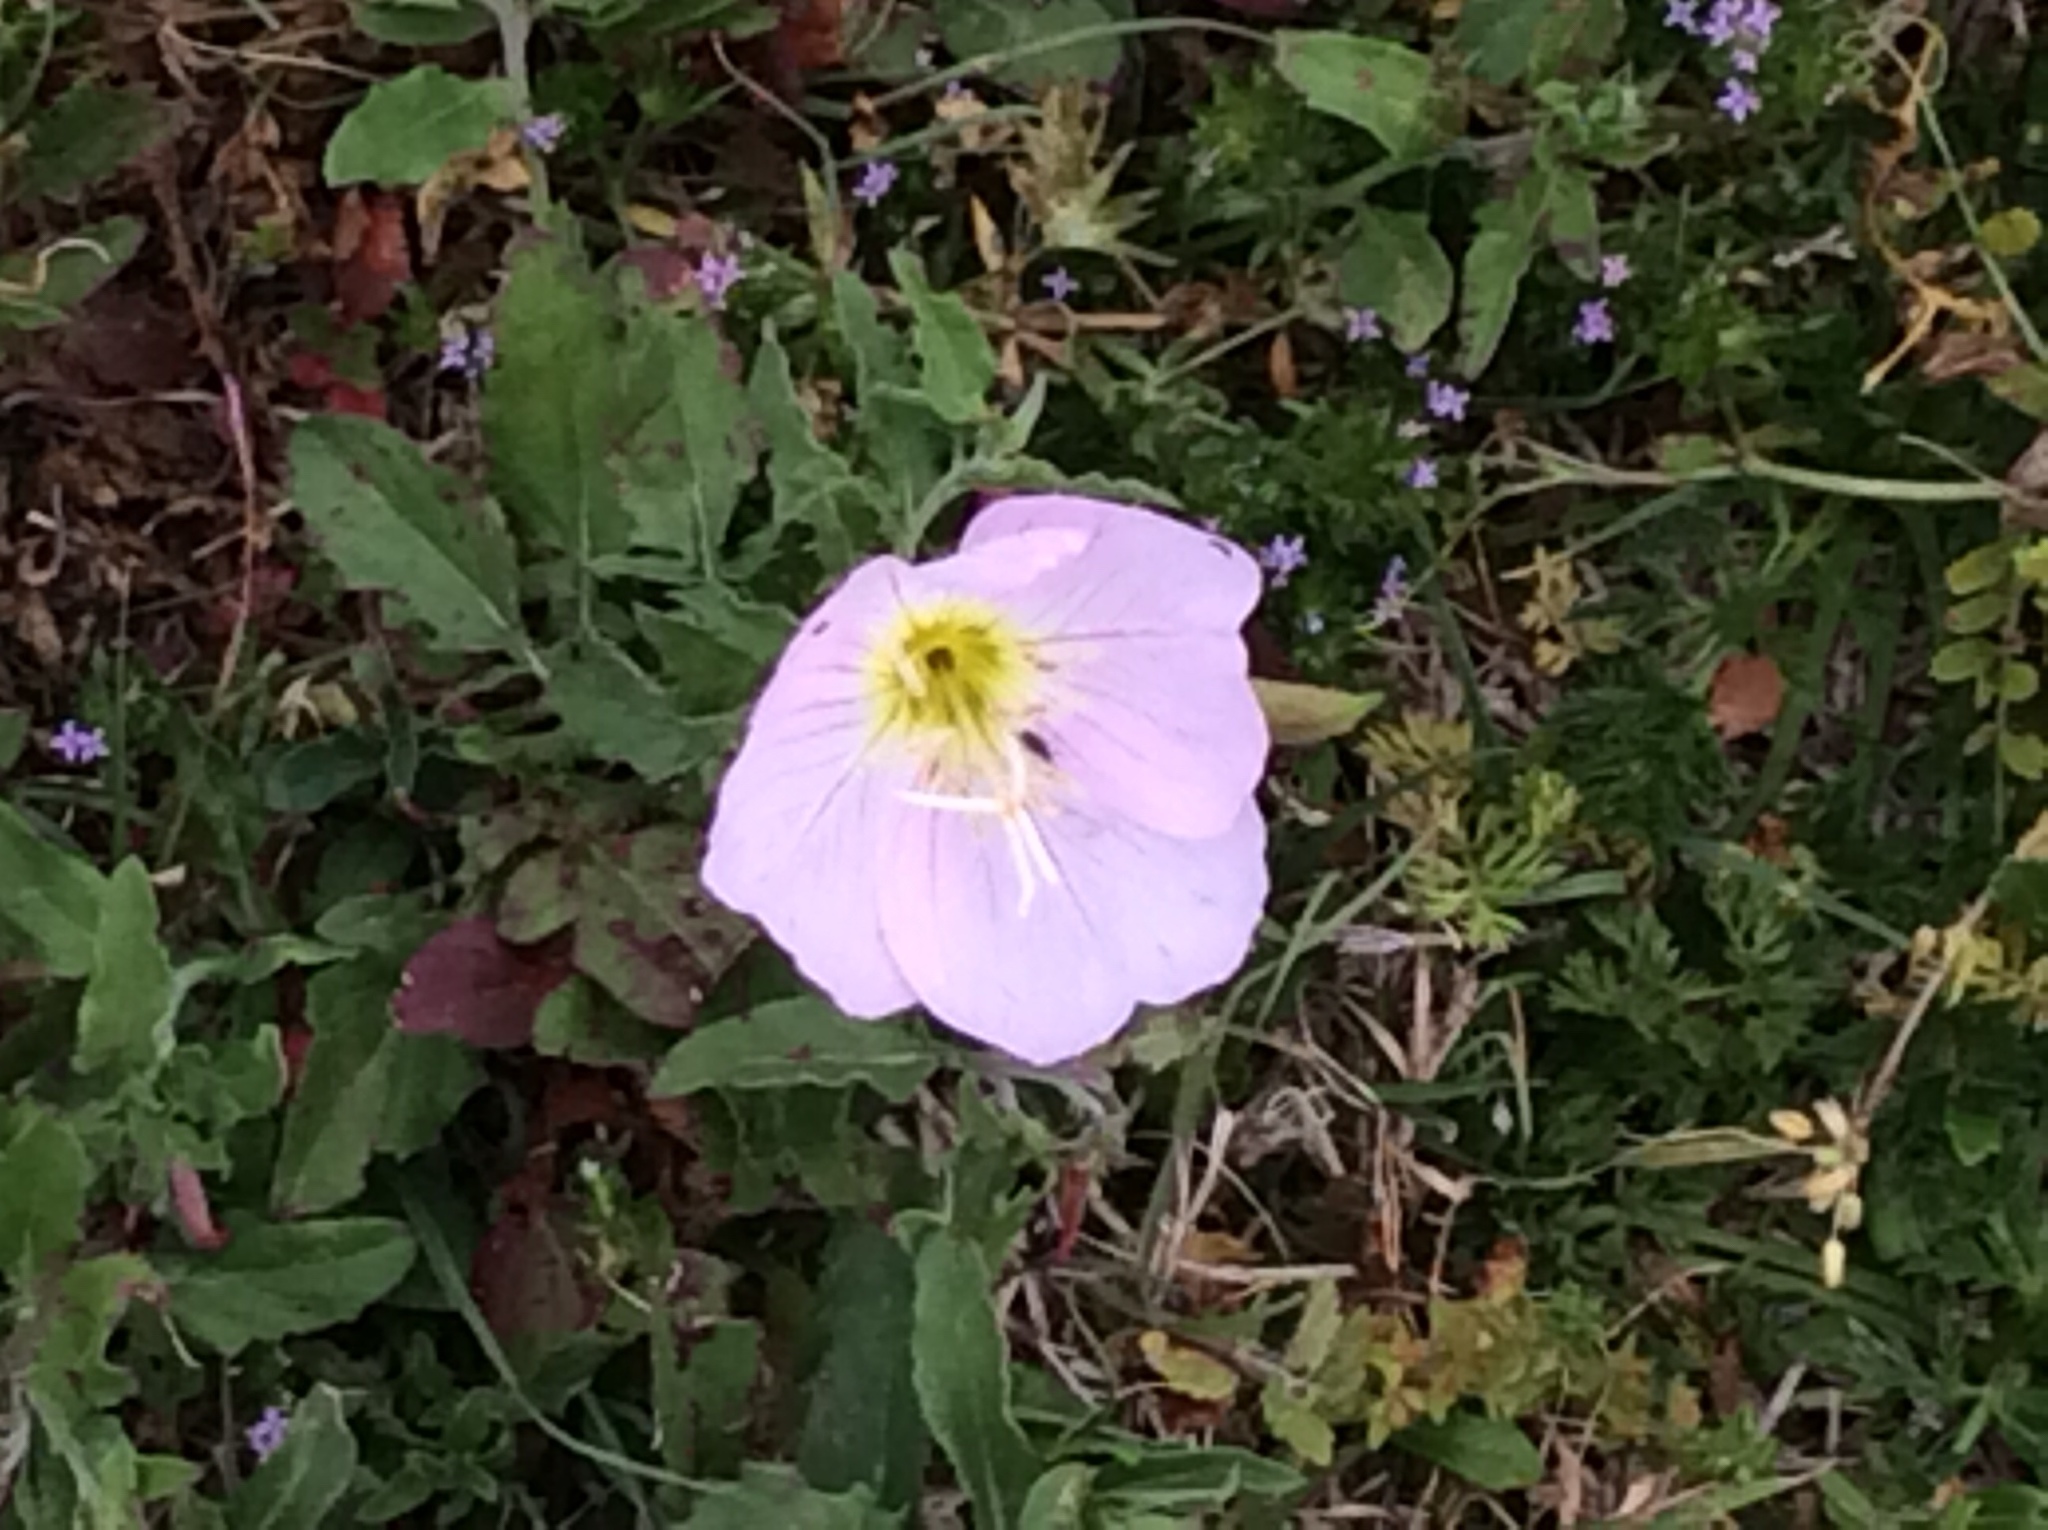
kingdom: Plantae
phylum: Tracheophyta
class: Magnoliopsida
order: Myrtales
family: Onagraceae
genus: Oenothera
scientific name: Oenothera speciosa
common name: White evening-primrose
